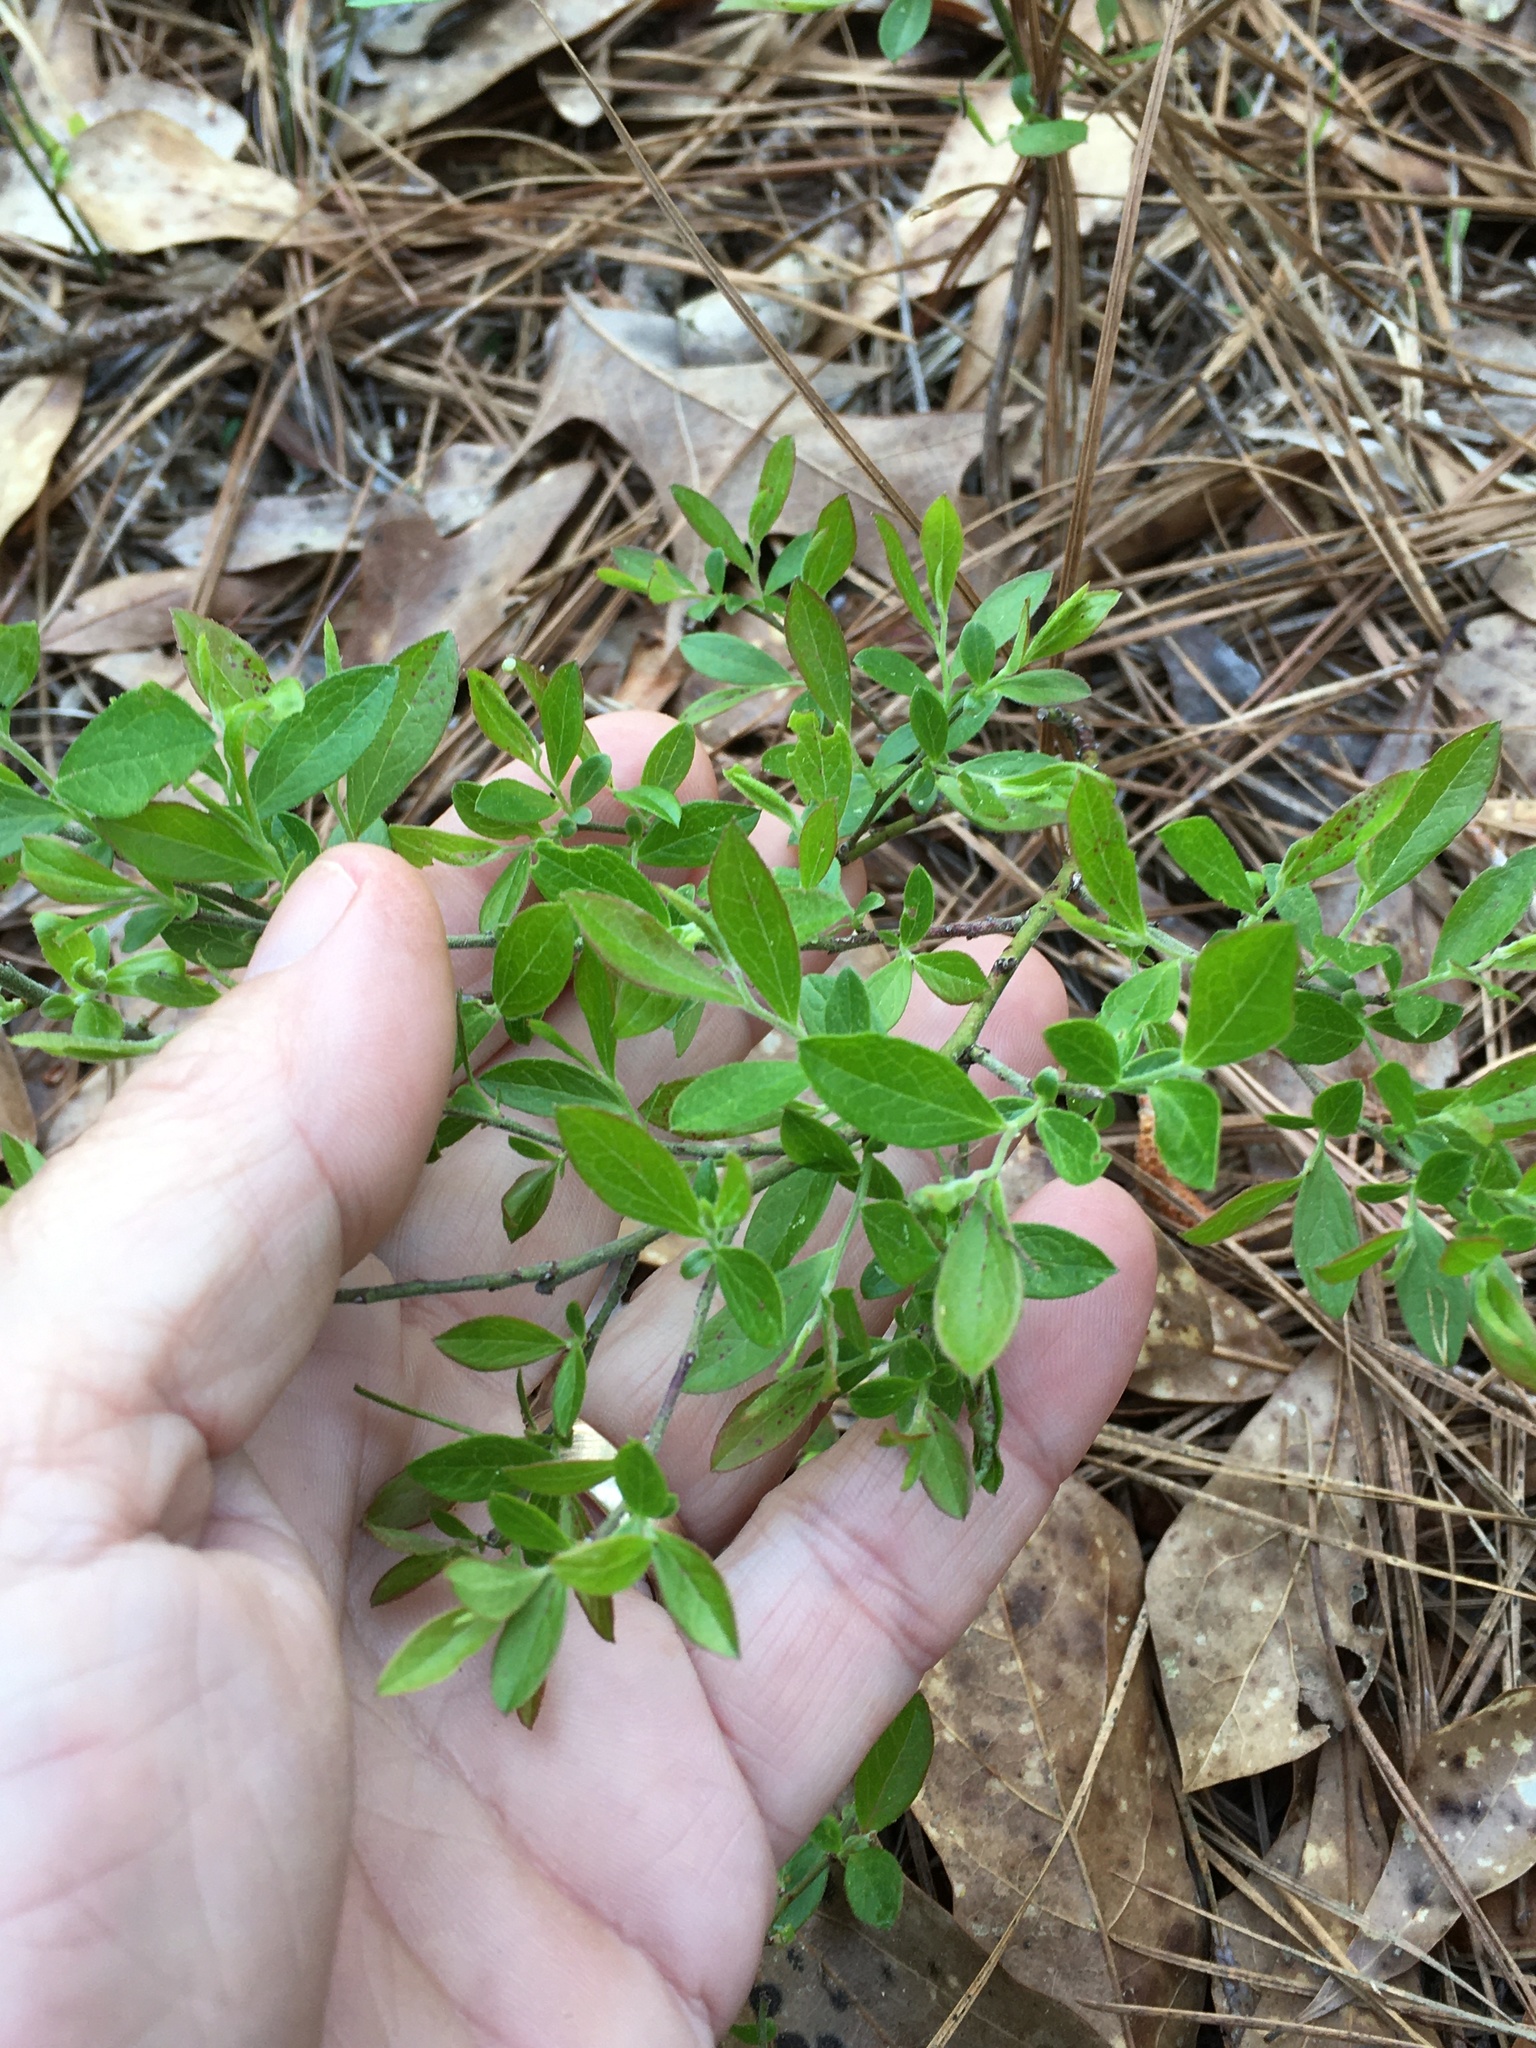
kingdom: Plantae
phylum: Tracheophyta
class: Magnoliopsida
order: Ericales
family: Ericaceae
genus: Vaccinium
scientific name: Vaccinium tenellum
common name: Southern blueberry
